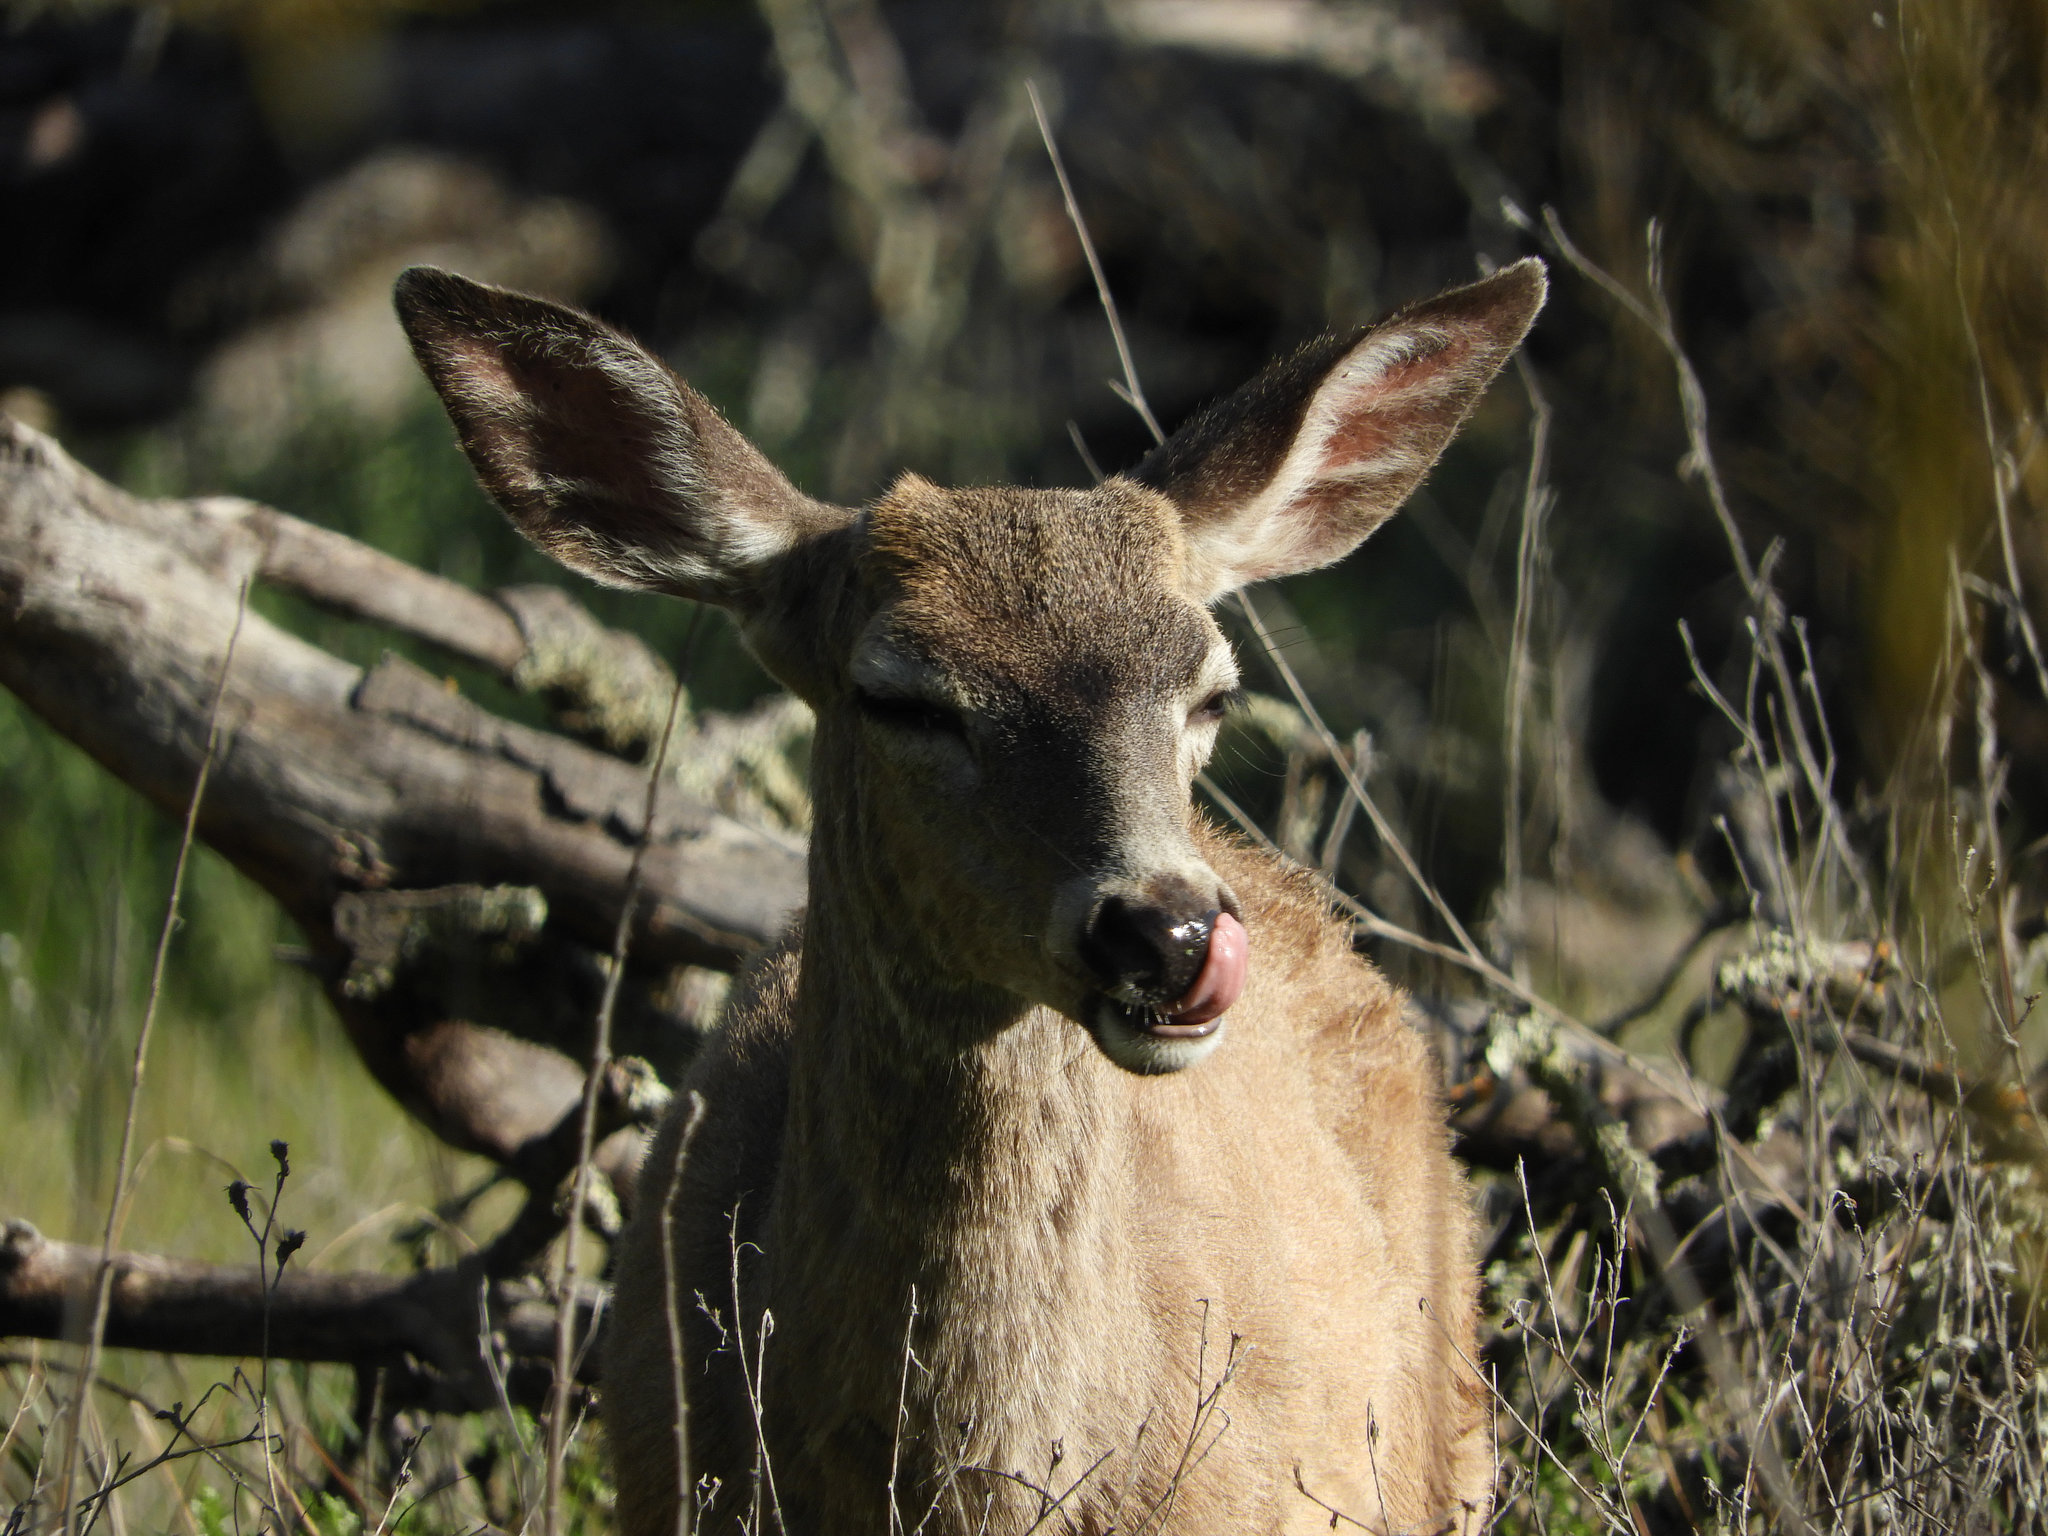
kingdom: Animalia
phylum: Chordata
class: Mammalia
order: Artiodactyla
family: Cervidae
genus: Odocoileus
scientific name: Odocoileus hemionus
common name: Mule deer
